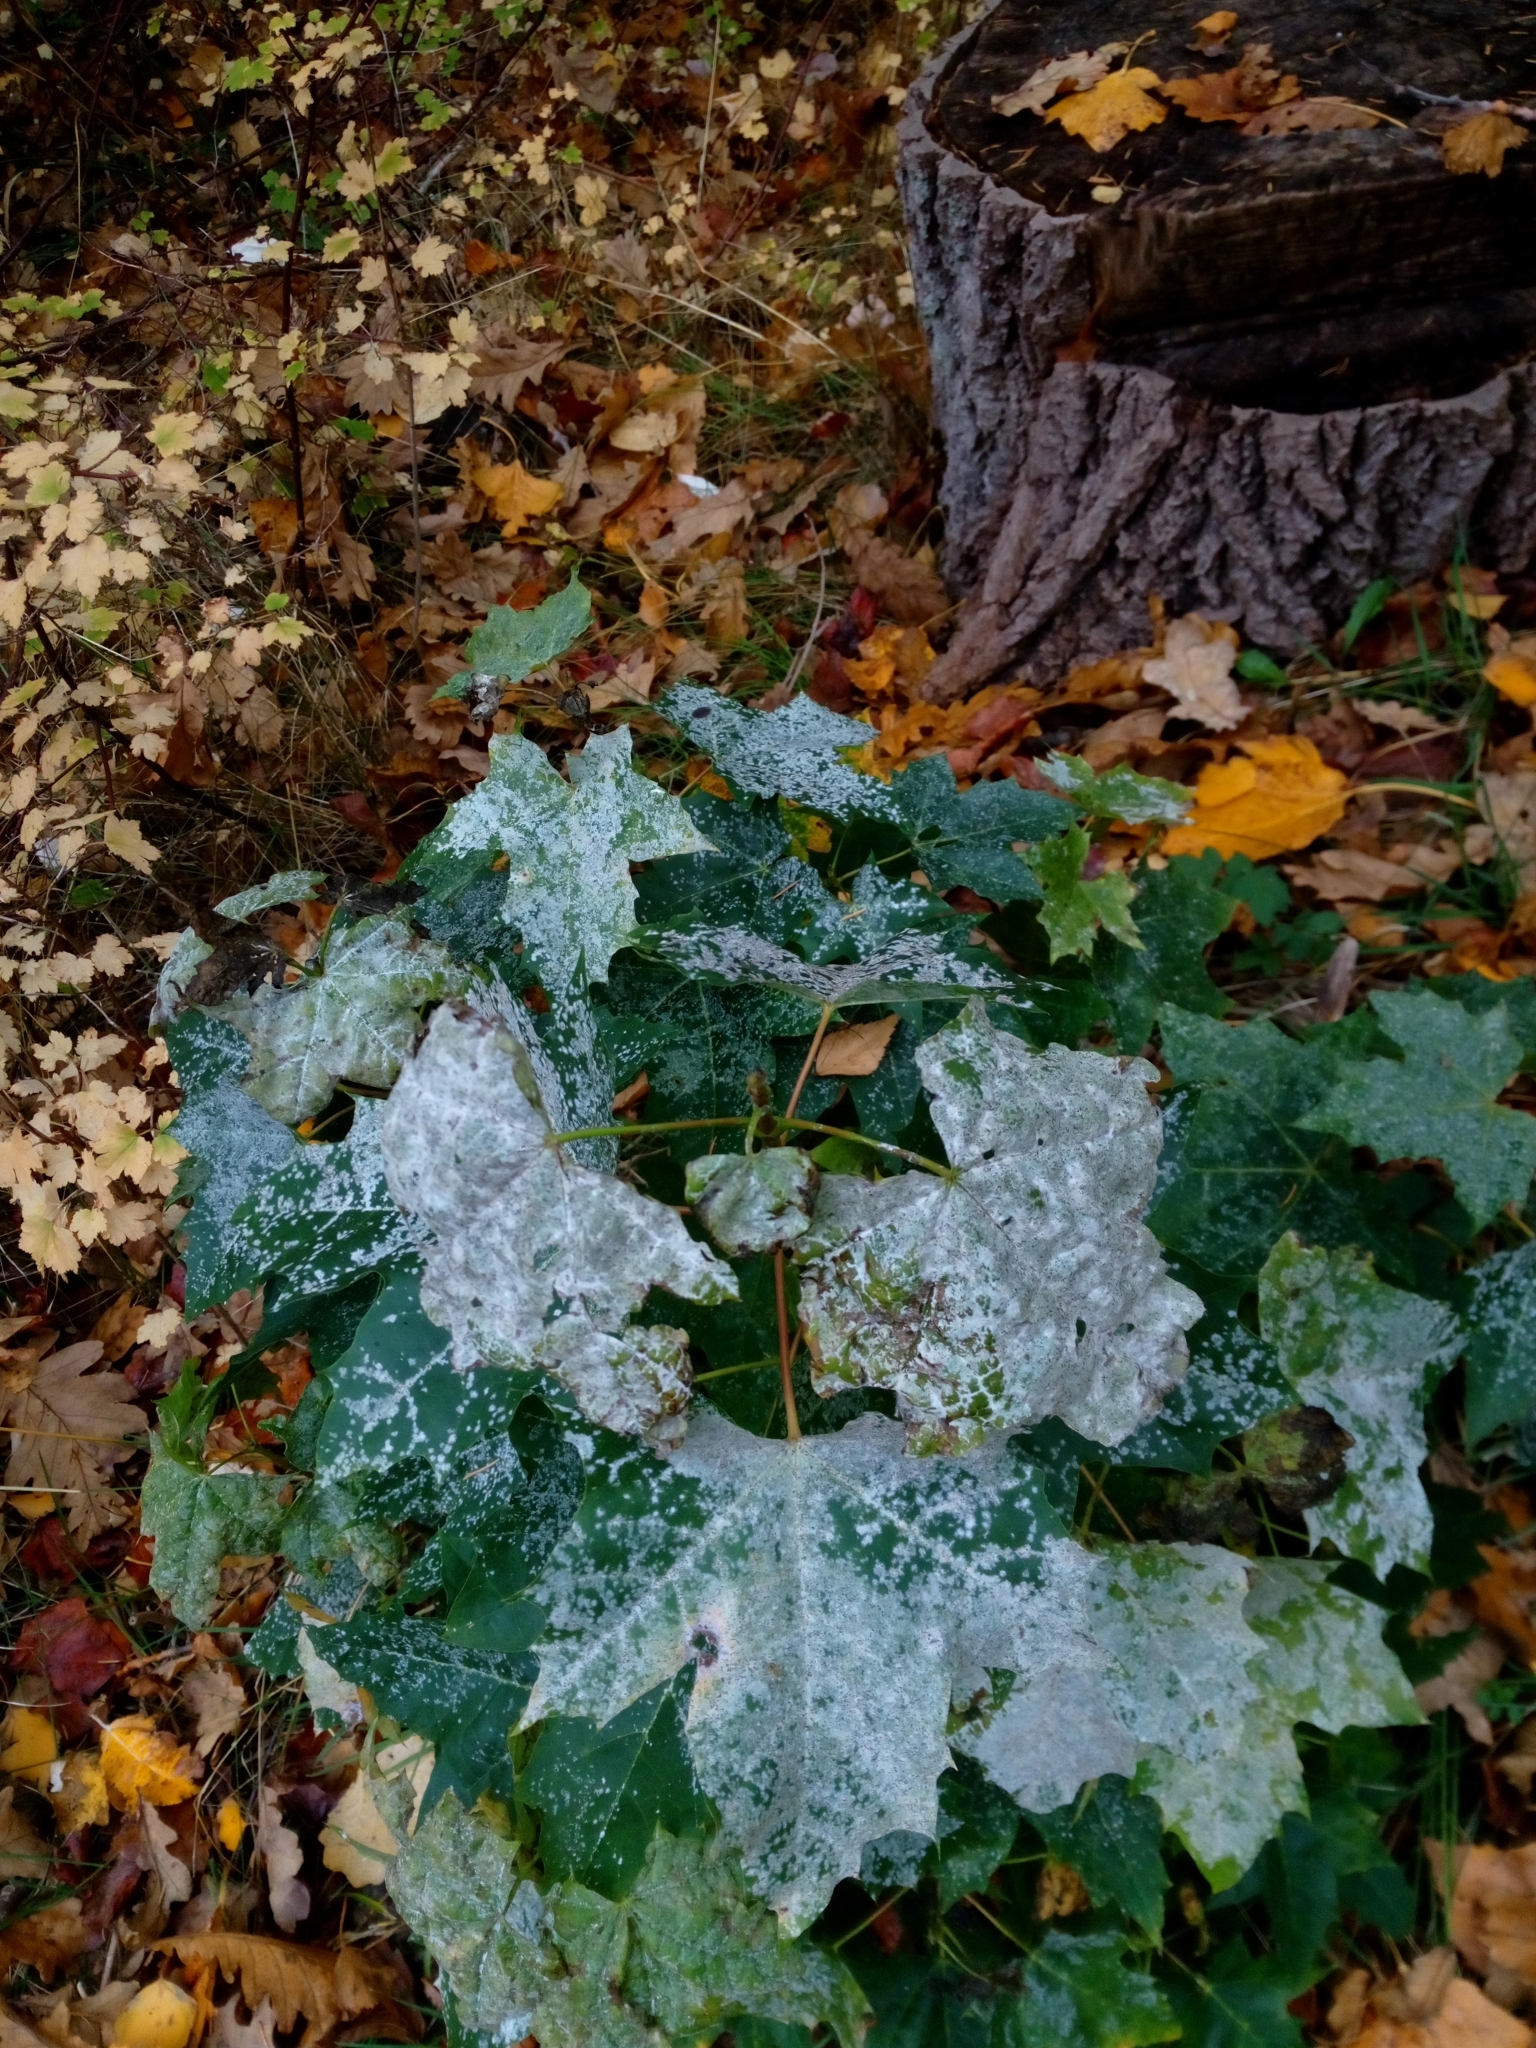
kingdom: Fungi
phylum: Ascomycota
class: Leotiomycetes
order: Helotiales
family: Erysiphaceae
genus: Sawadaea
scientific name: Sawadaea tulasnei
